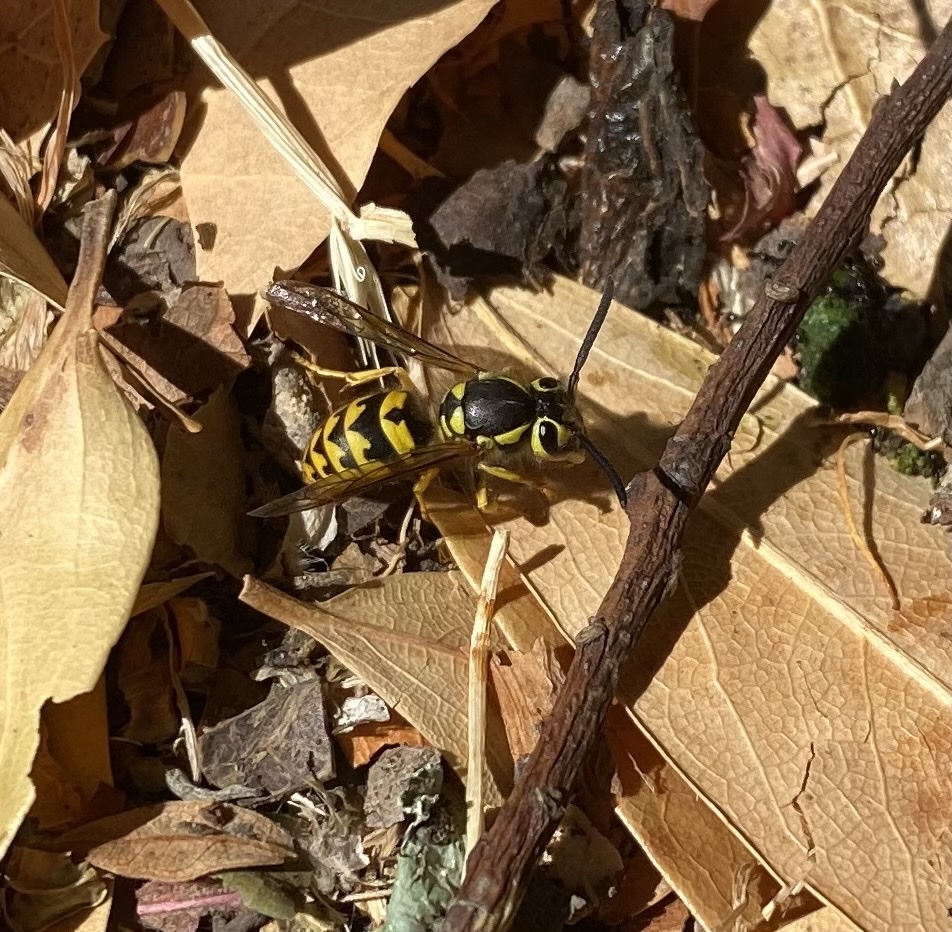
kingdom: Animalia
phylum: Arthropoda
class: Insecta
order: Hymenoptera
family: Vespidae
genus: Vespula
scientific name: Vespula pensylvanica
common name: Western yellowjacket
